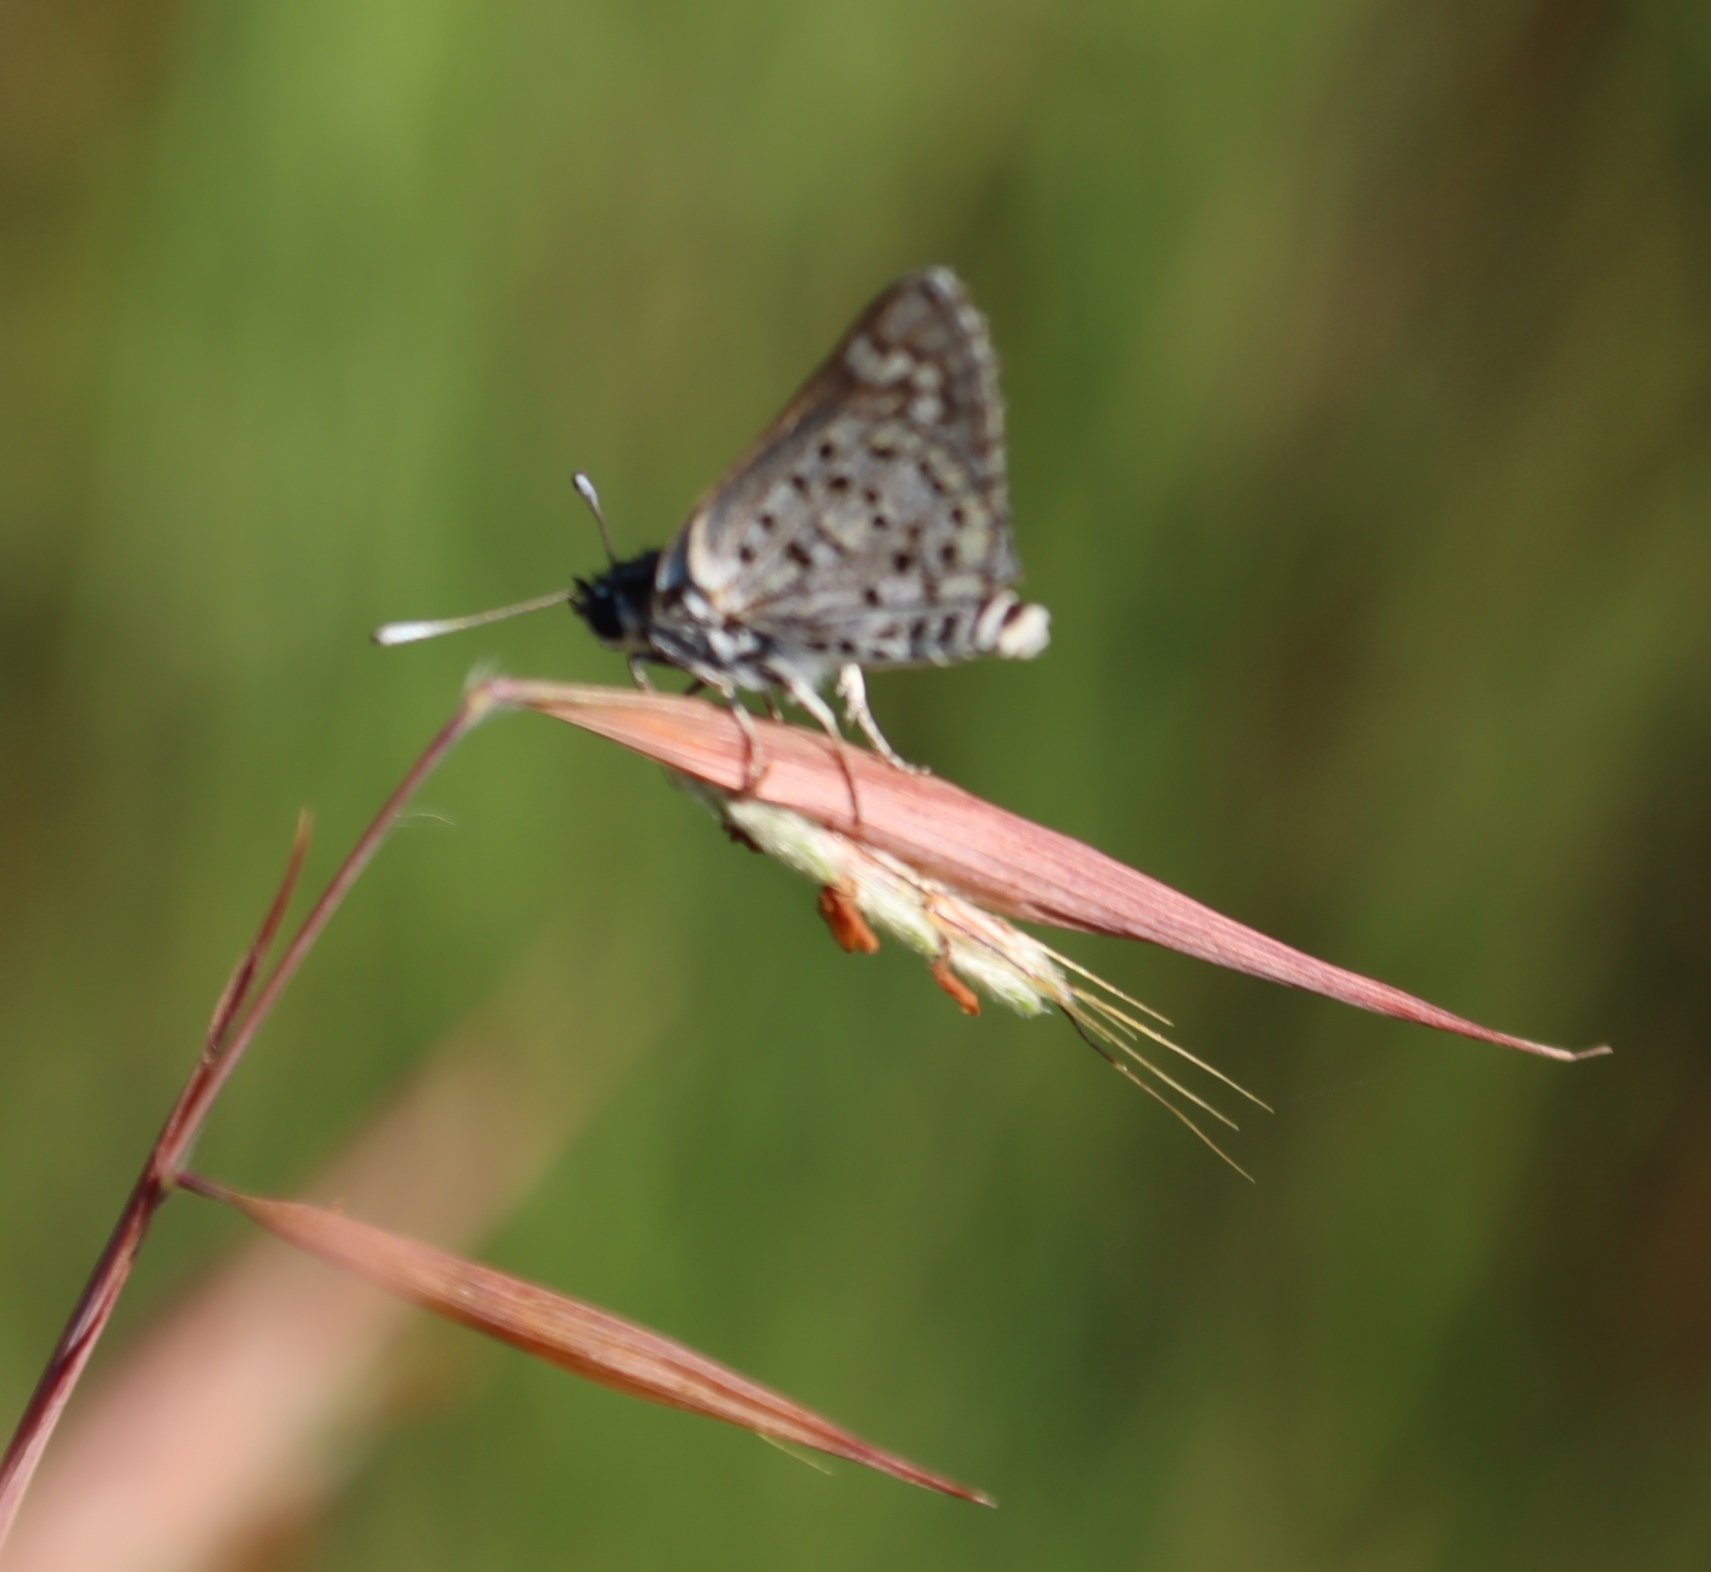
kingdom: Plantae
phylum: Tracheophyta
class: Liliopsida
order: Poales
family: Poaceae
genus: Monocymbium
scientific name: Monocymbium ceresiiforme
